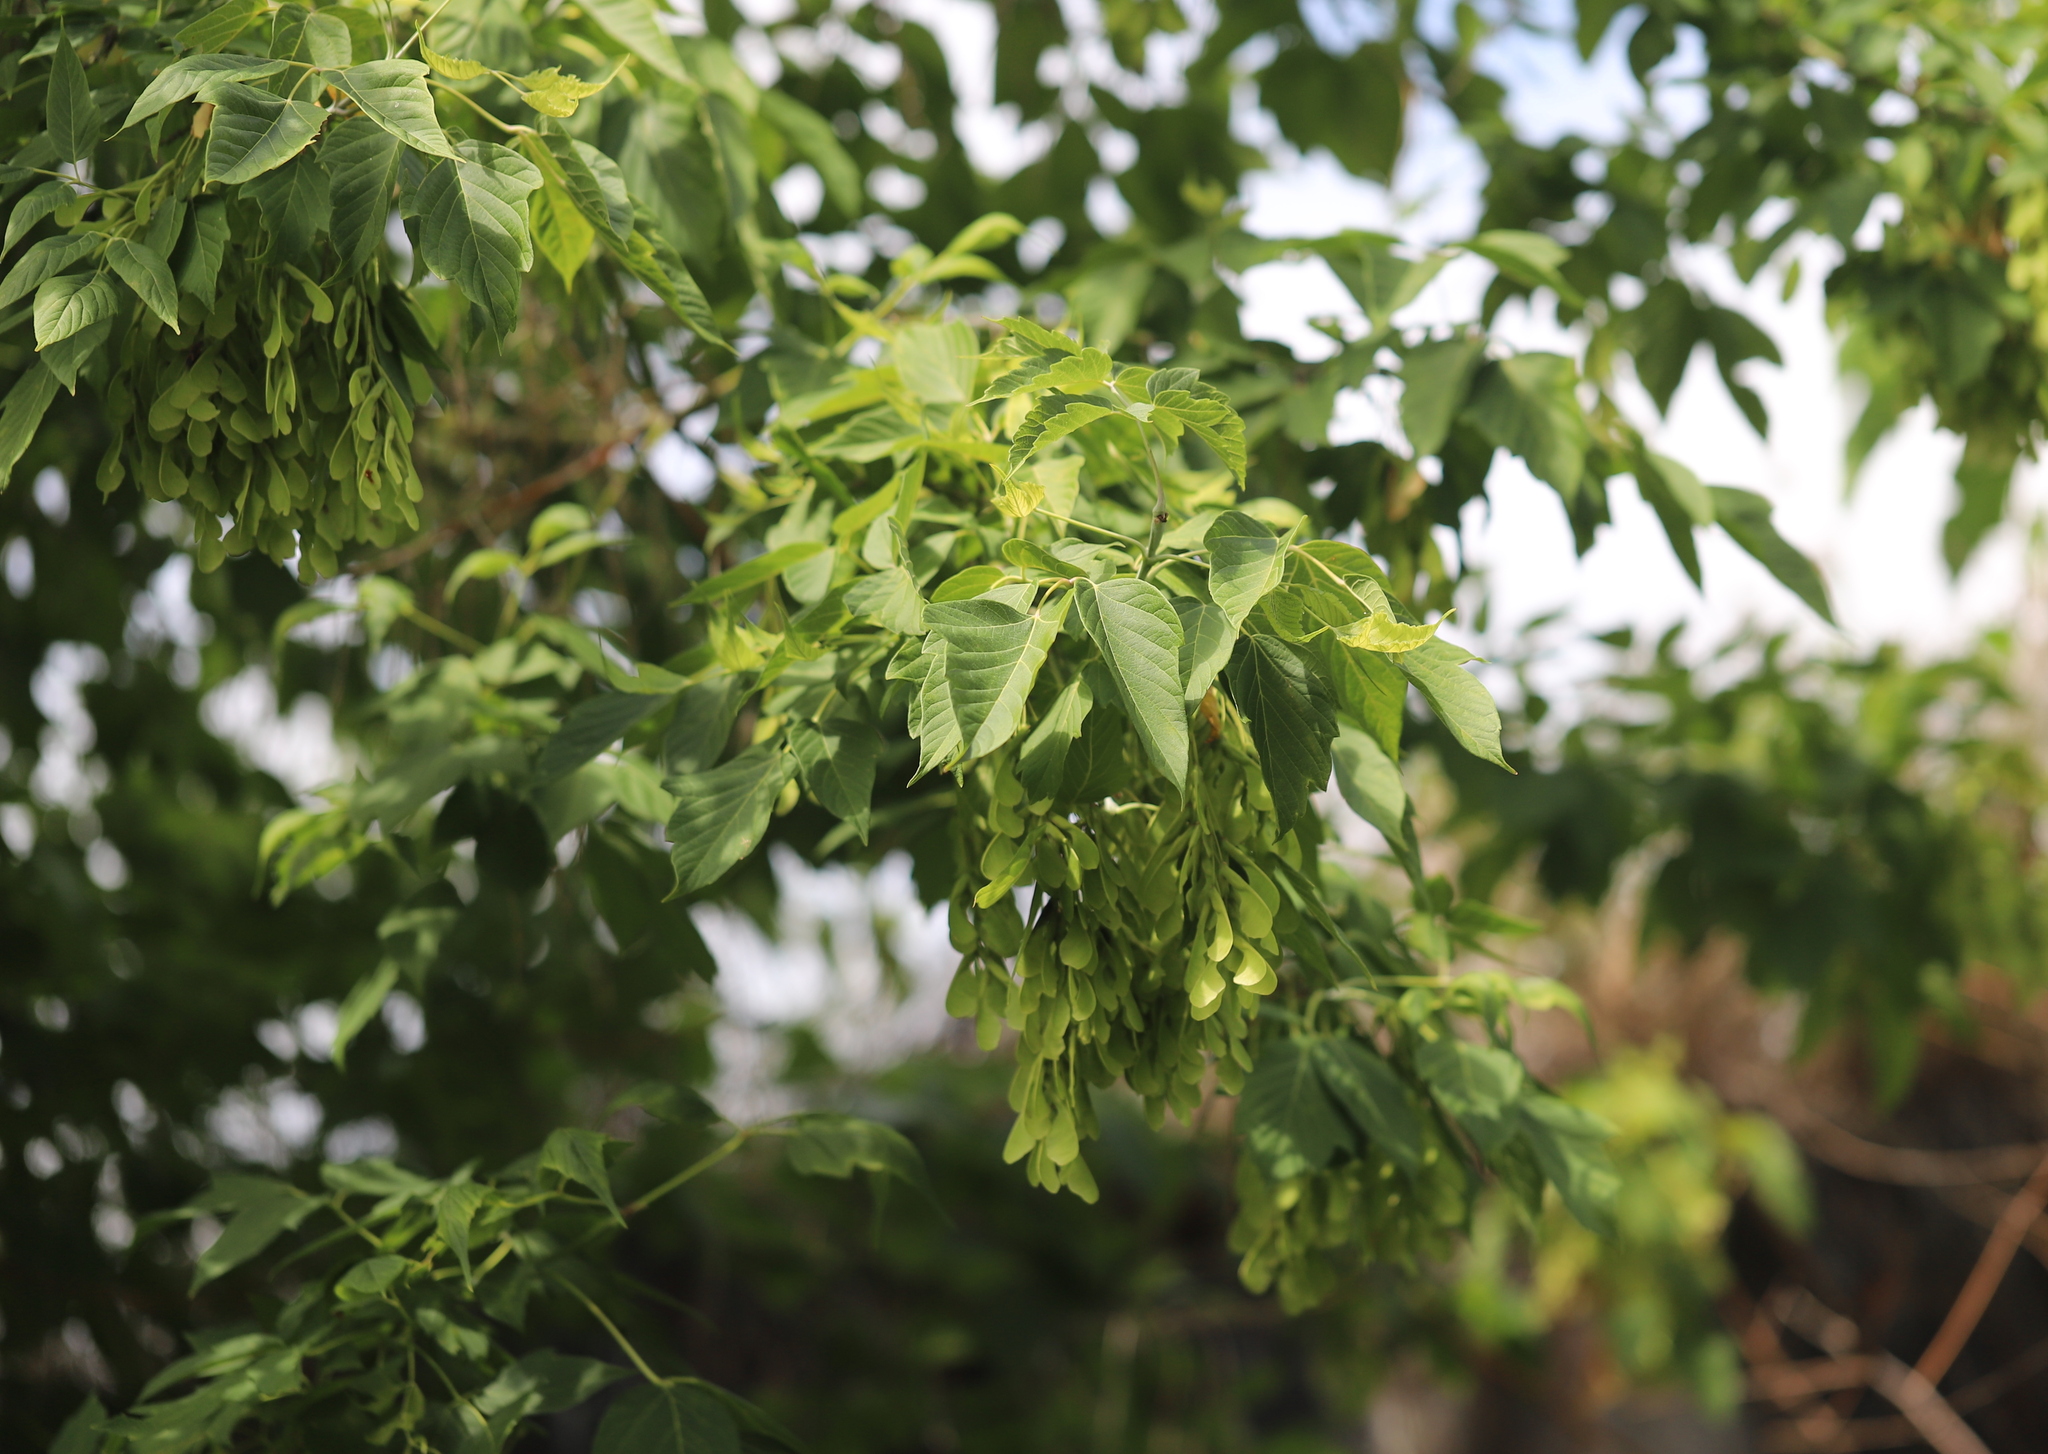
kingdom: Plantae
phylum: Tracheophyta
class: Magnoliopsida
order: Sapindales
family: Sapindaceae
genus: Acer
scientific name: Acer negundo
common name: Ashleaf maple
